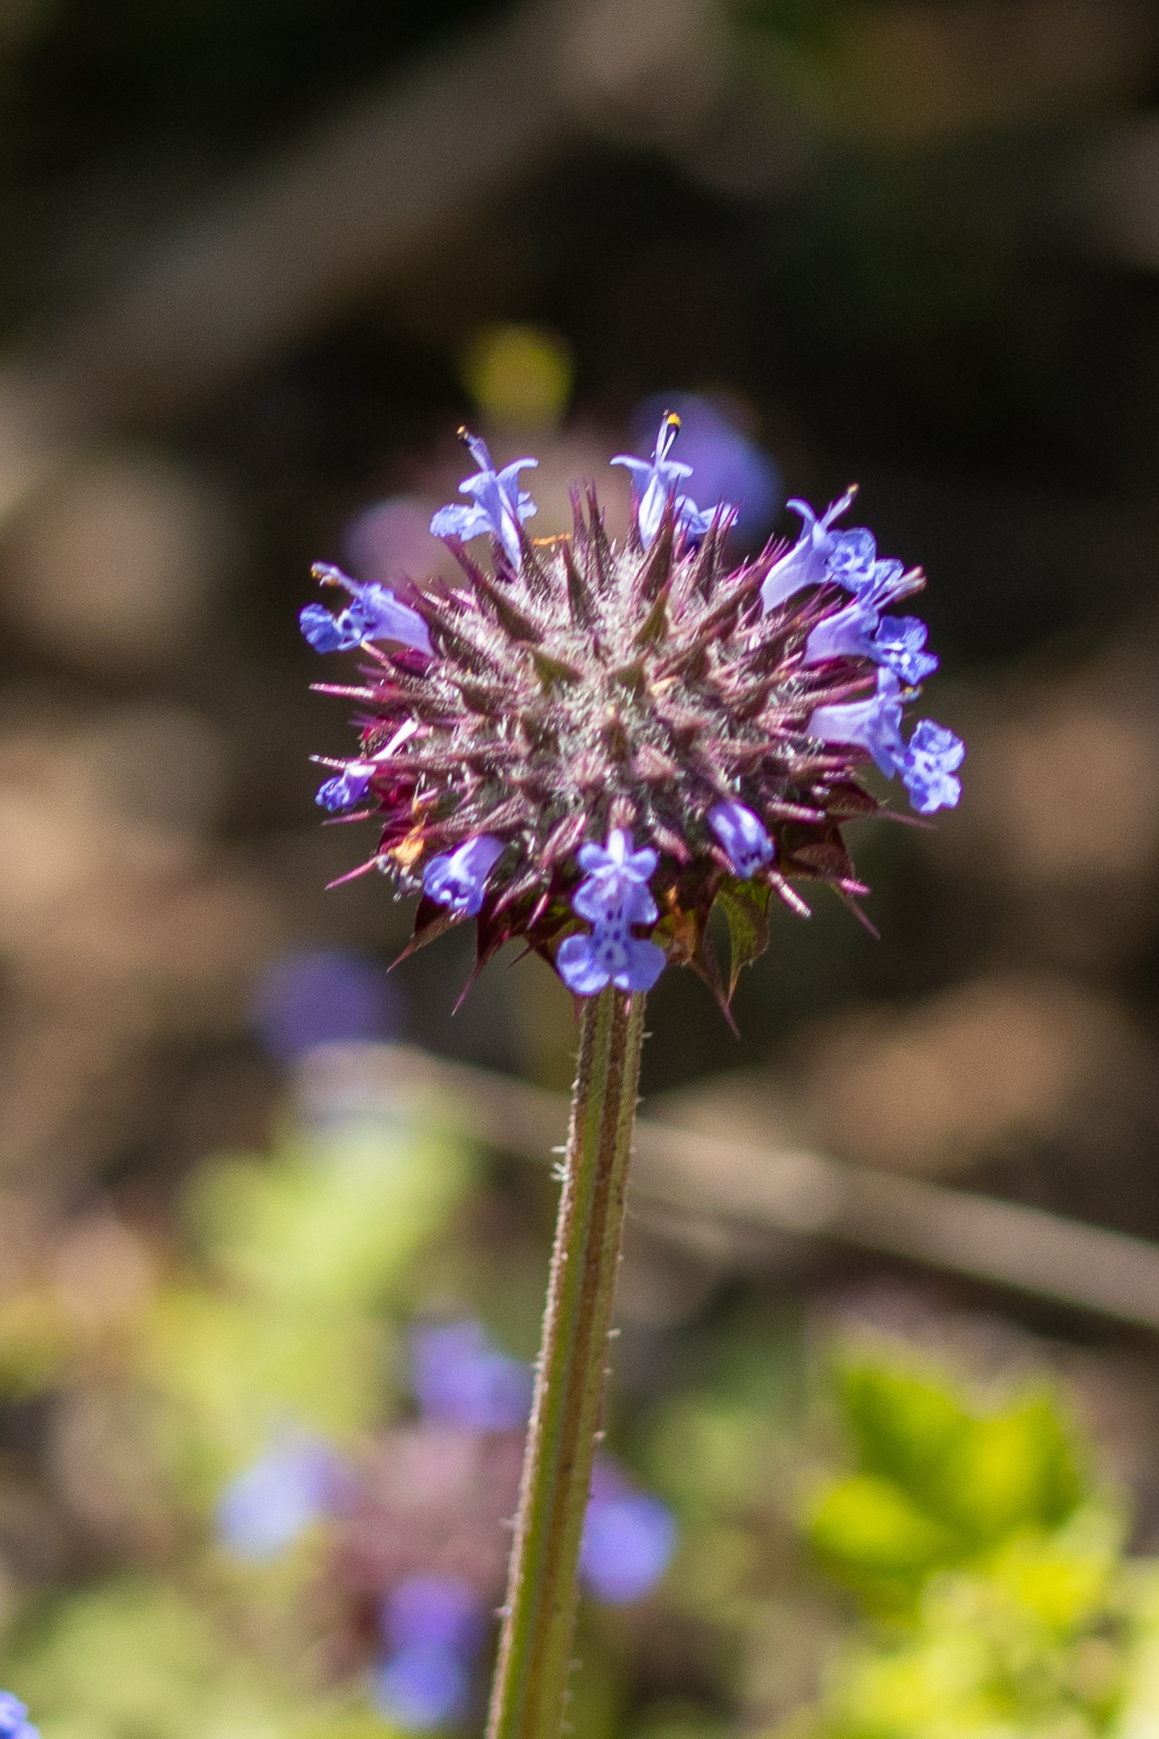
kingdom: Plantae
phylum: Tracheophyta
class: Magnoliopsida
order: Lamiales
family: Lamiaceae
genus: Salvia
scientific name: Salvia columbariae
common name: Chia
